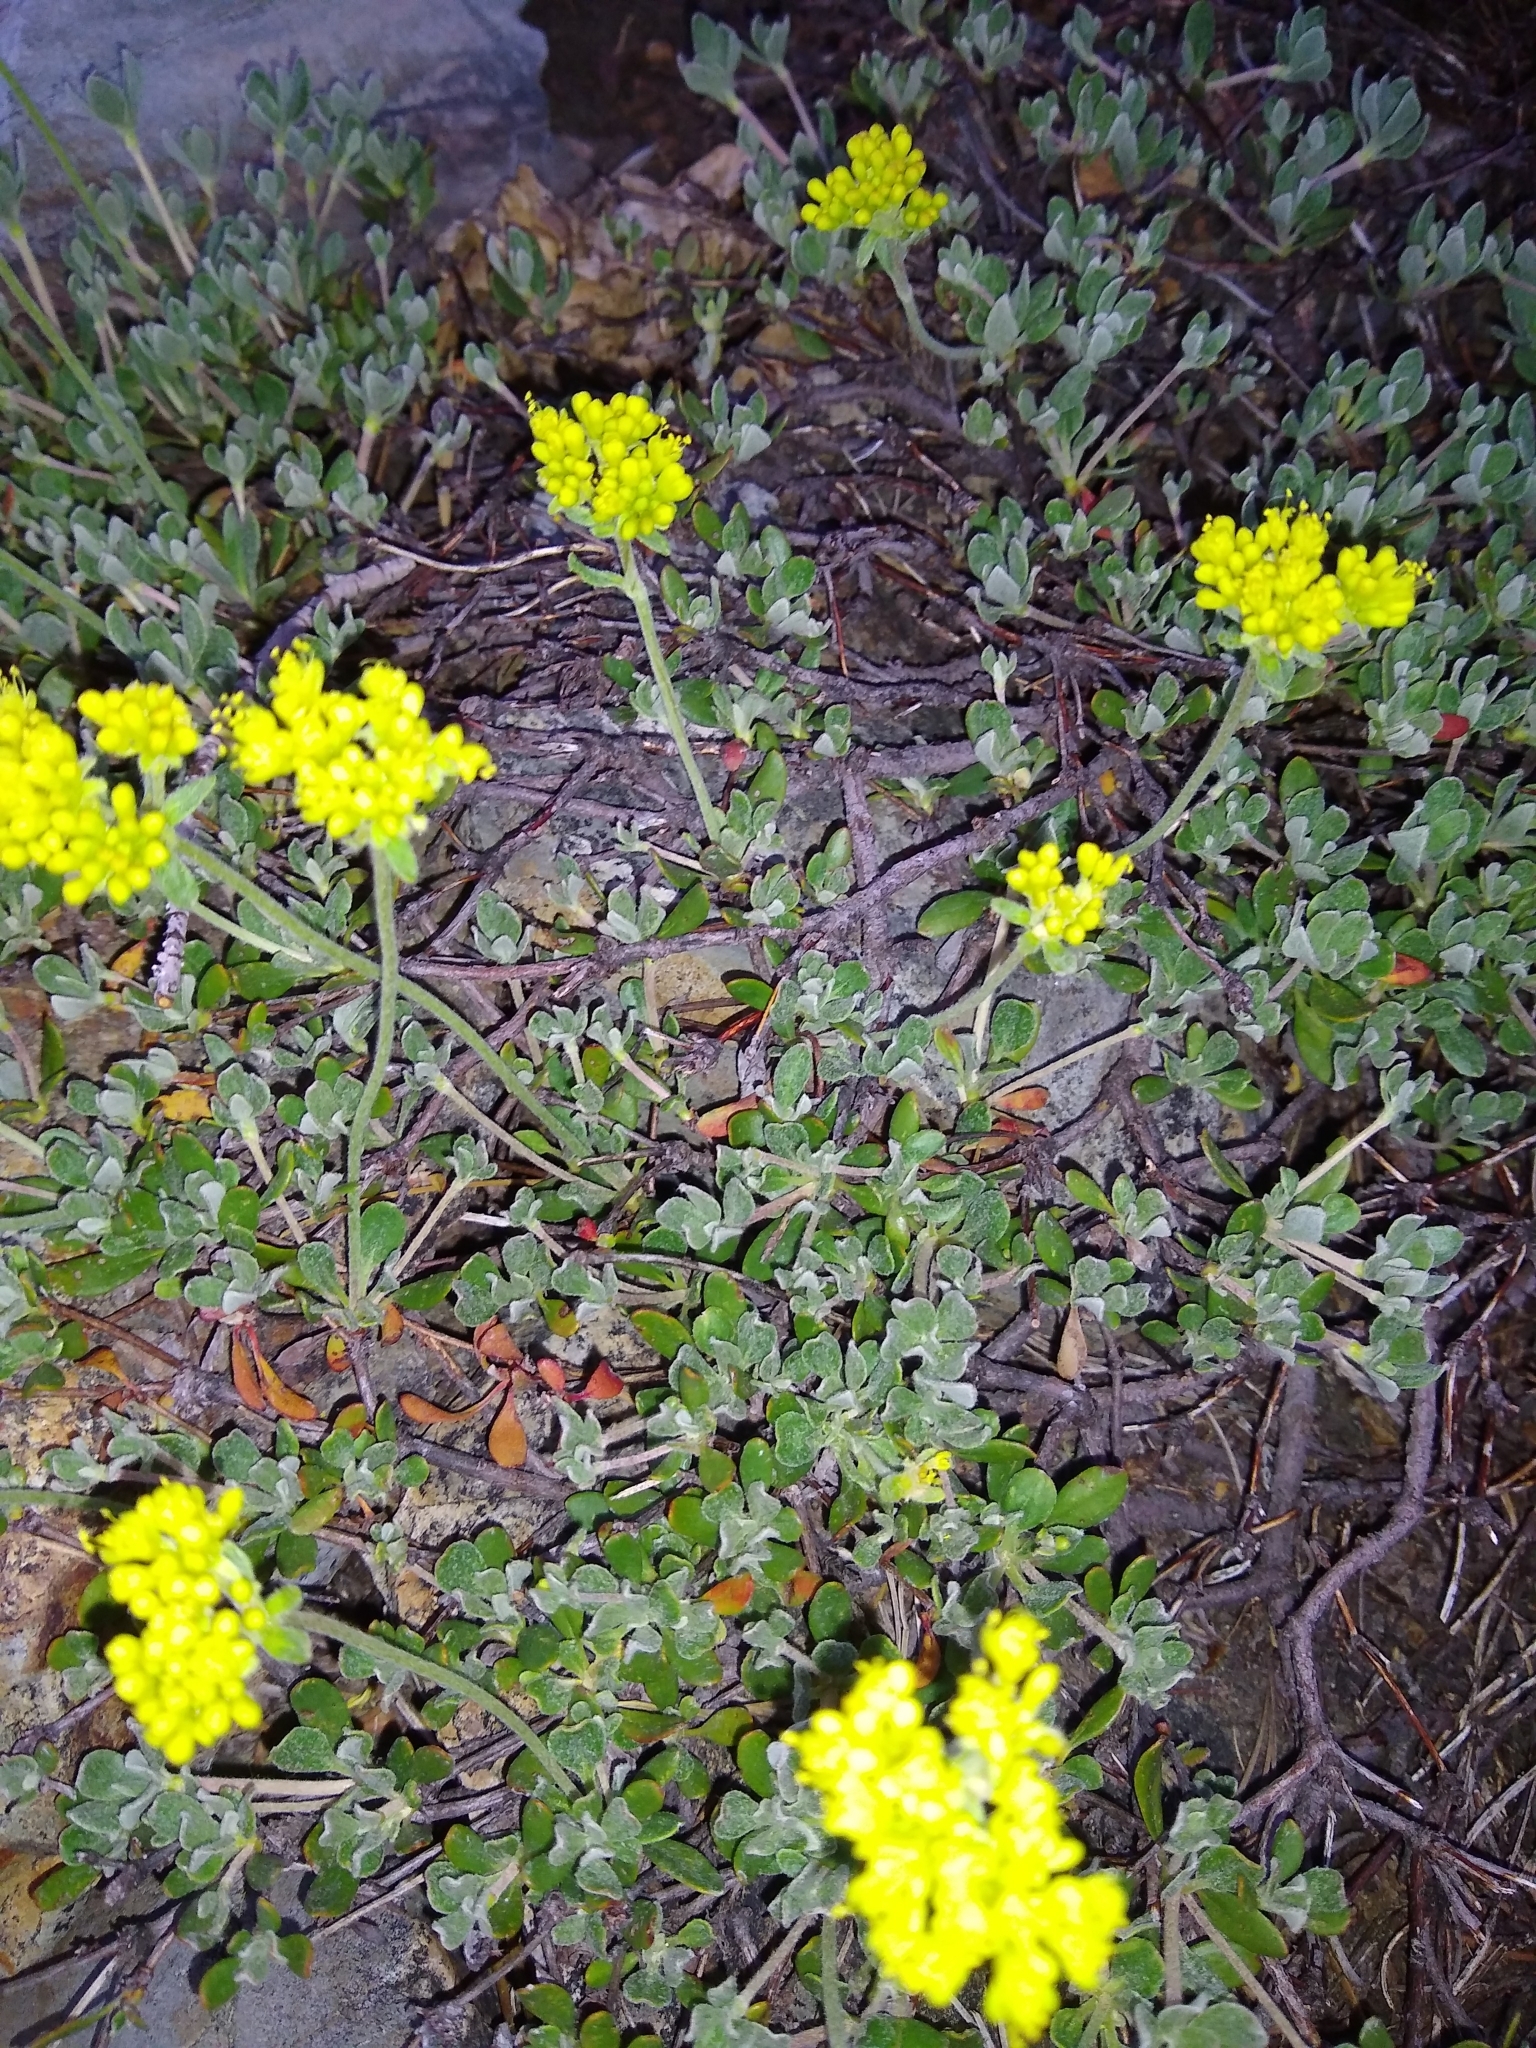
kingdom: Plantae
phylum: Tracheophyta
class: Magnoliopsida
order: Caryophyllales
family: Polygonaceae
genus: Eriogonum
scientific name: Eriogonum umbellatum
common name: Sulfur-buckwheat
